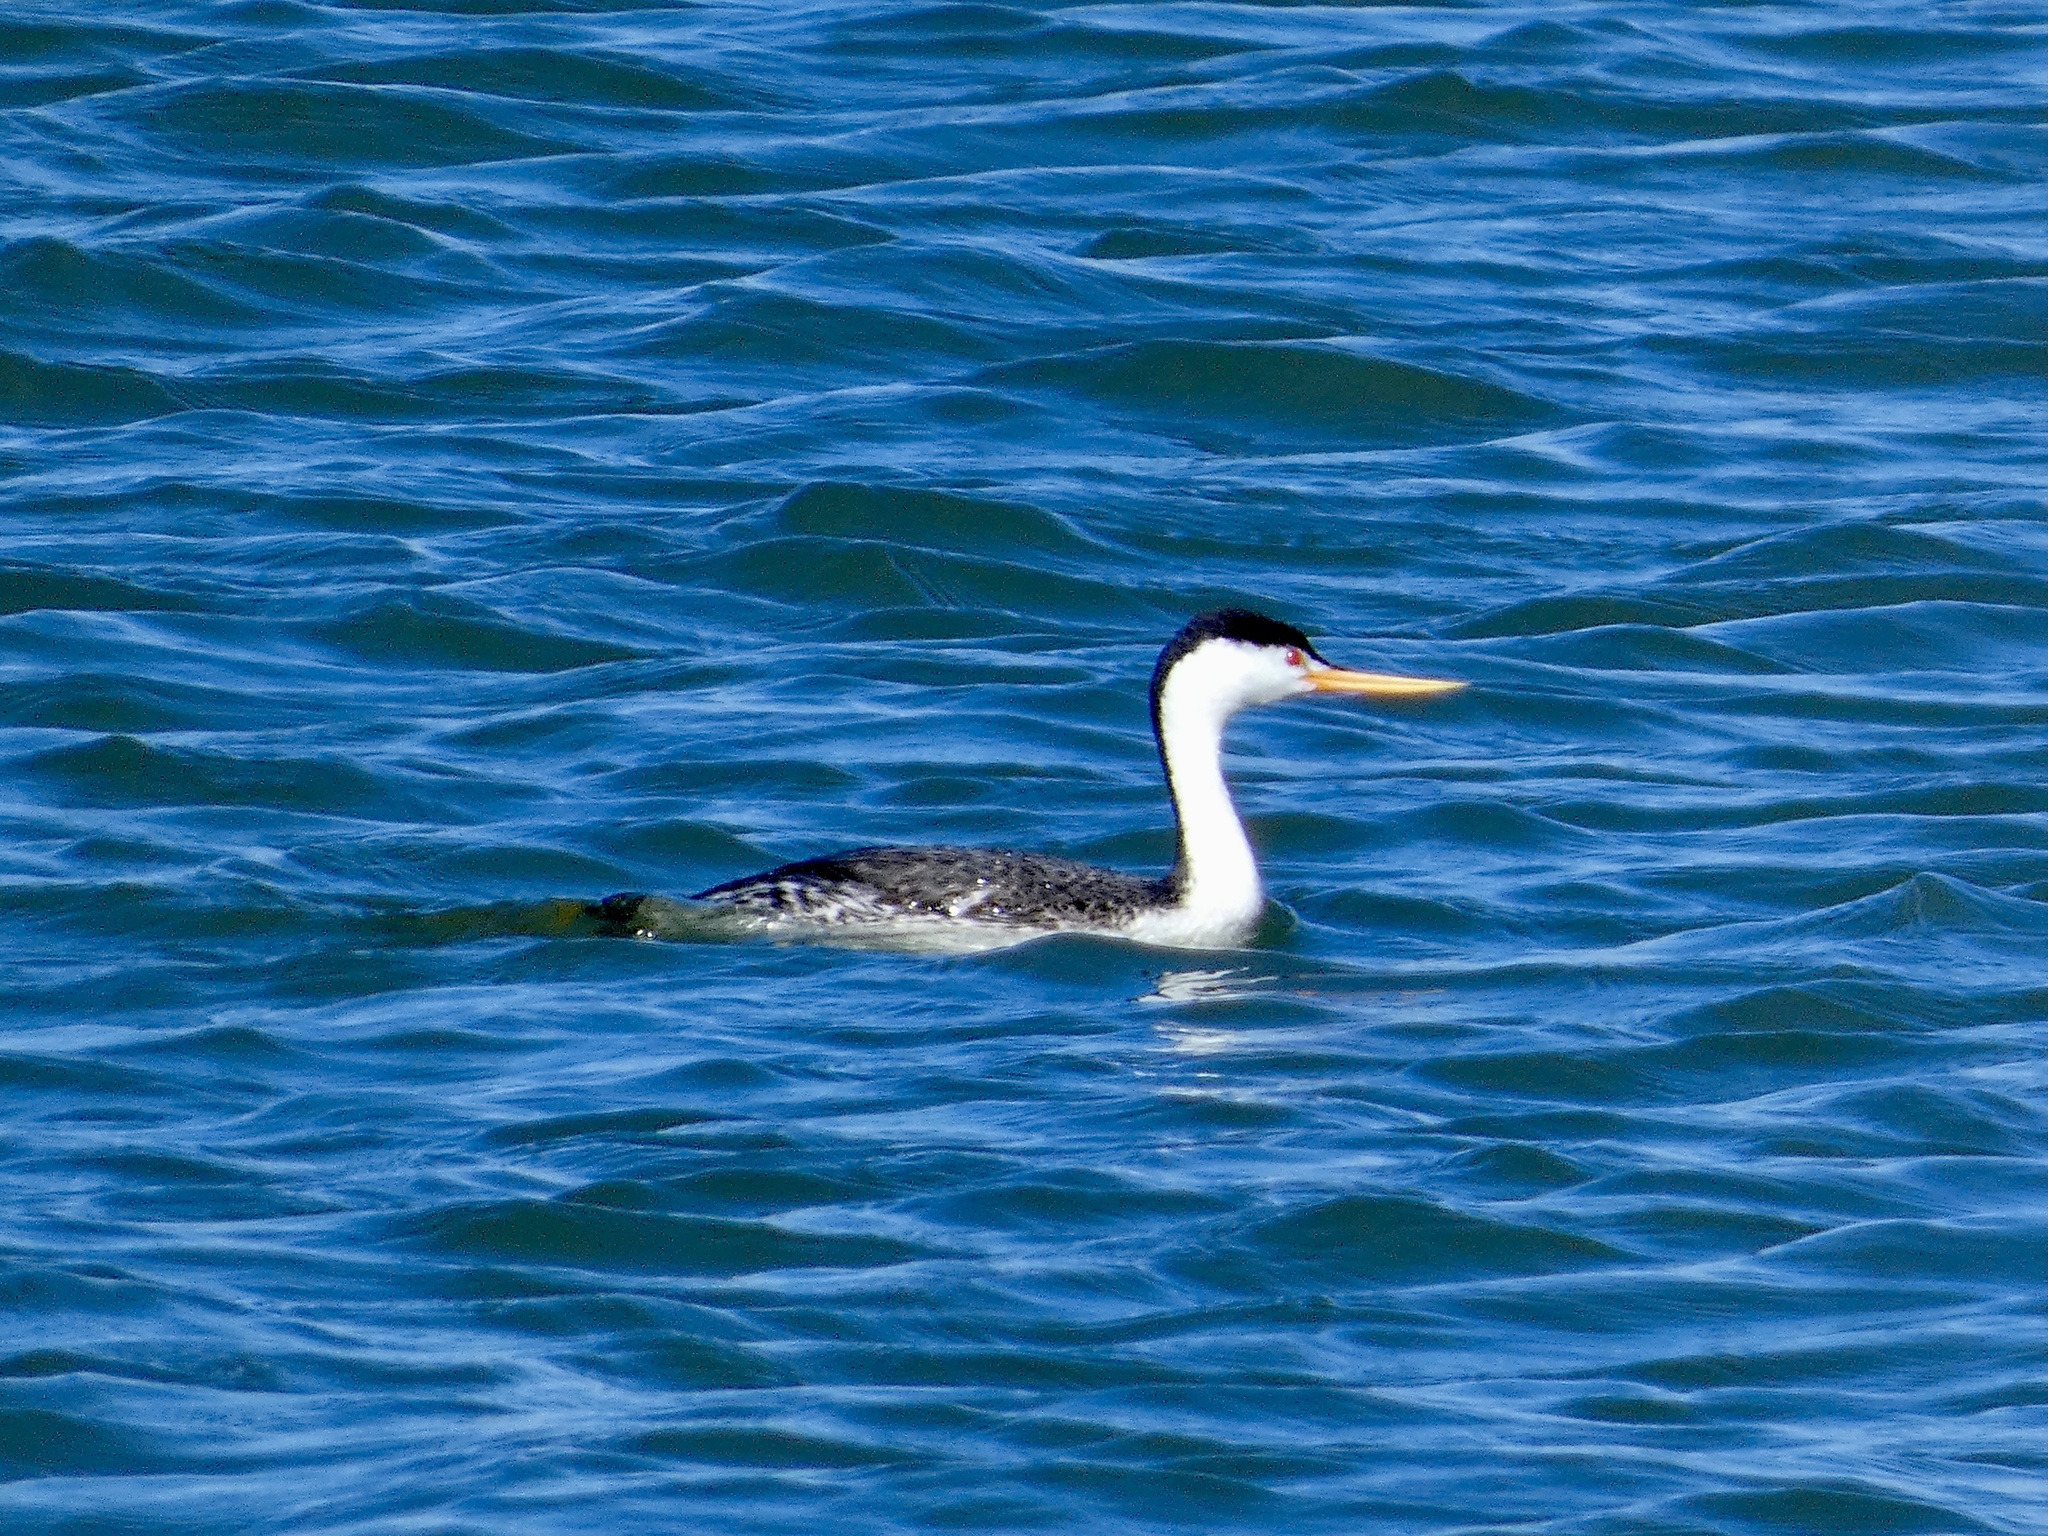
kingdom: Animalia
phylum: Chordata
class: Aves
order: Podicipediformes
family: Podicipedidae
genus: Aechmophorus
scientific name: Aechmophorus clarkii
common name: Clark's grebe
